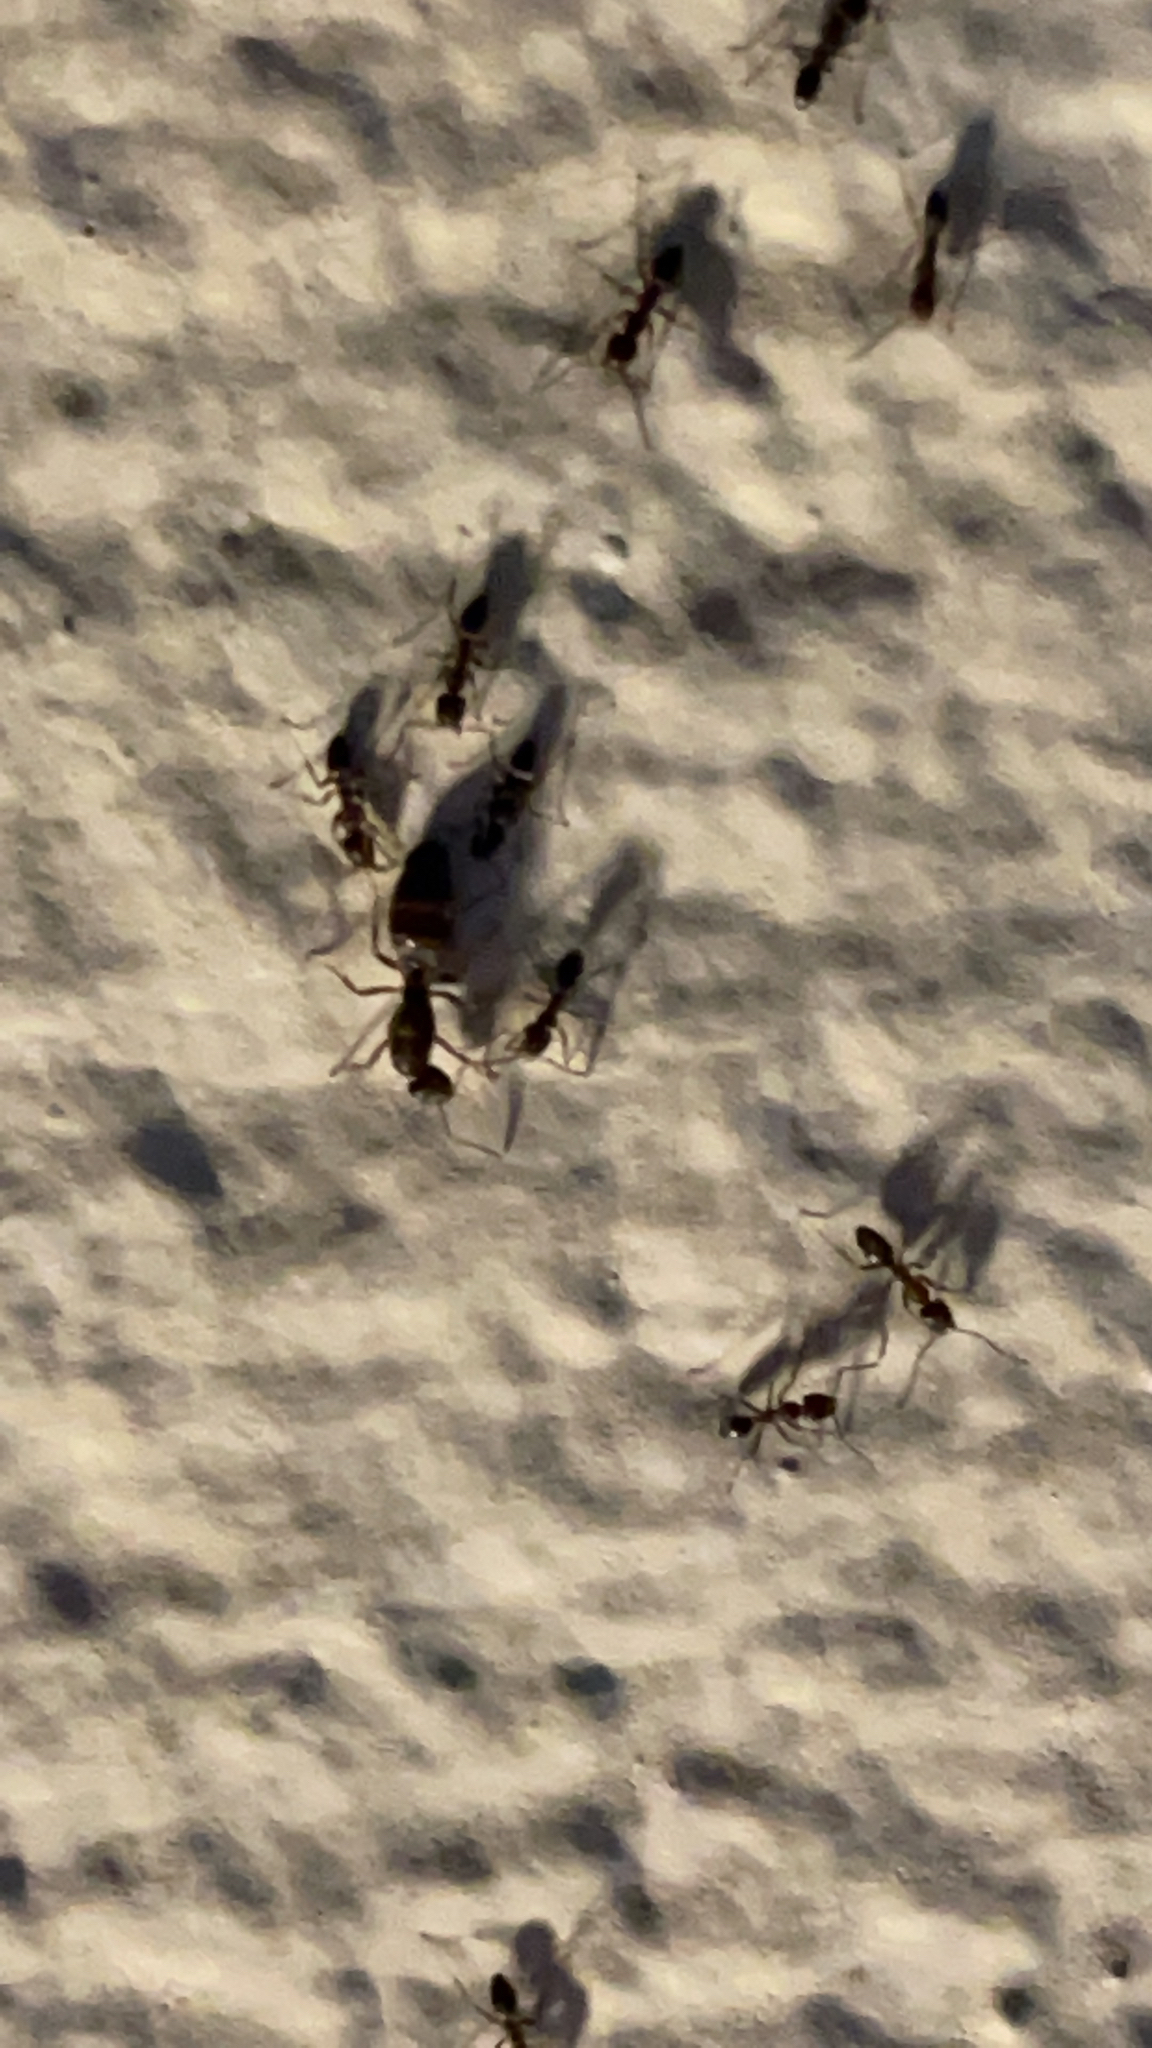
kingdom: Animalia
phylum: Arthropoda
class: Insecta
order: Hymenoptera
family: Formicidae
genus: Linepithema
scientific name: Linepithema humile
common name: Argentine ant
